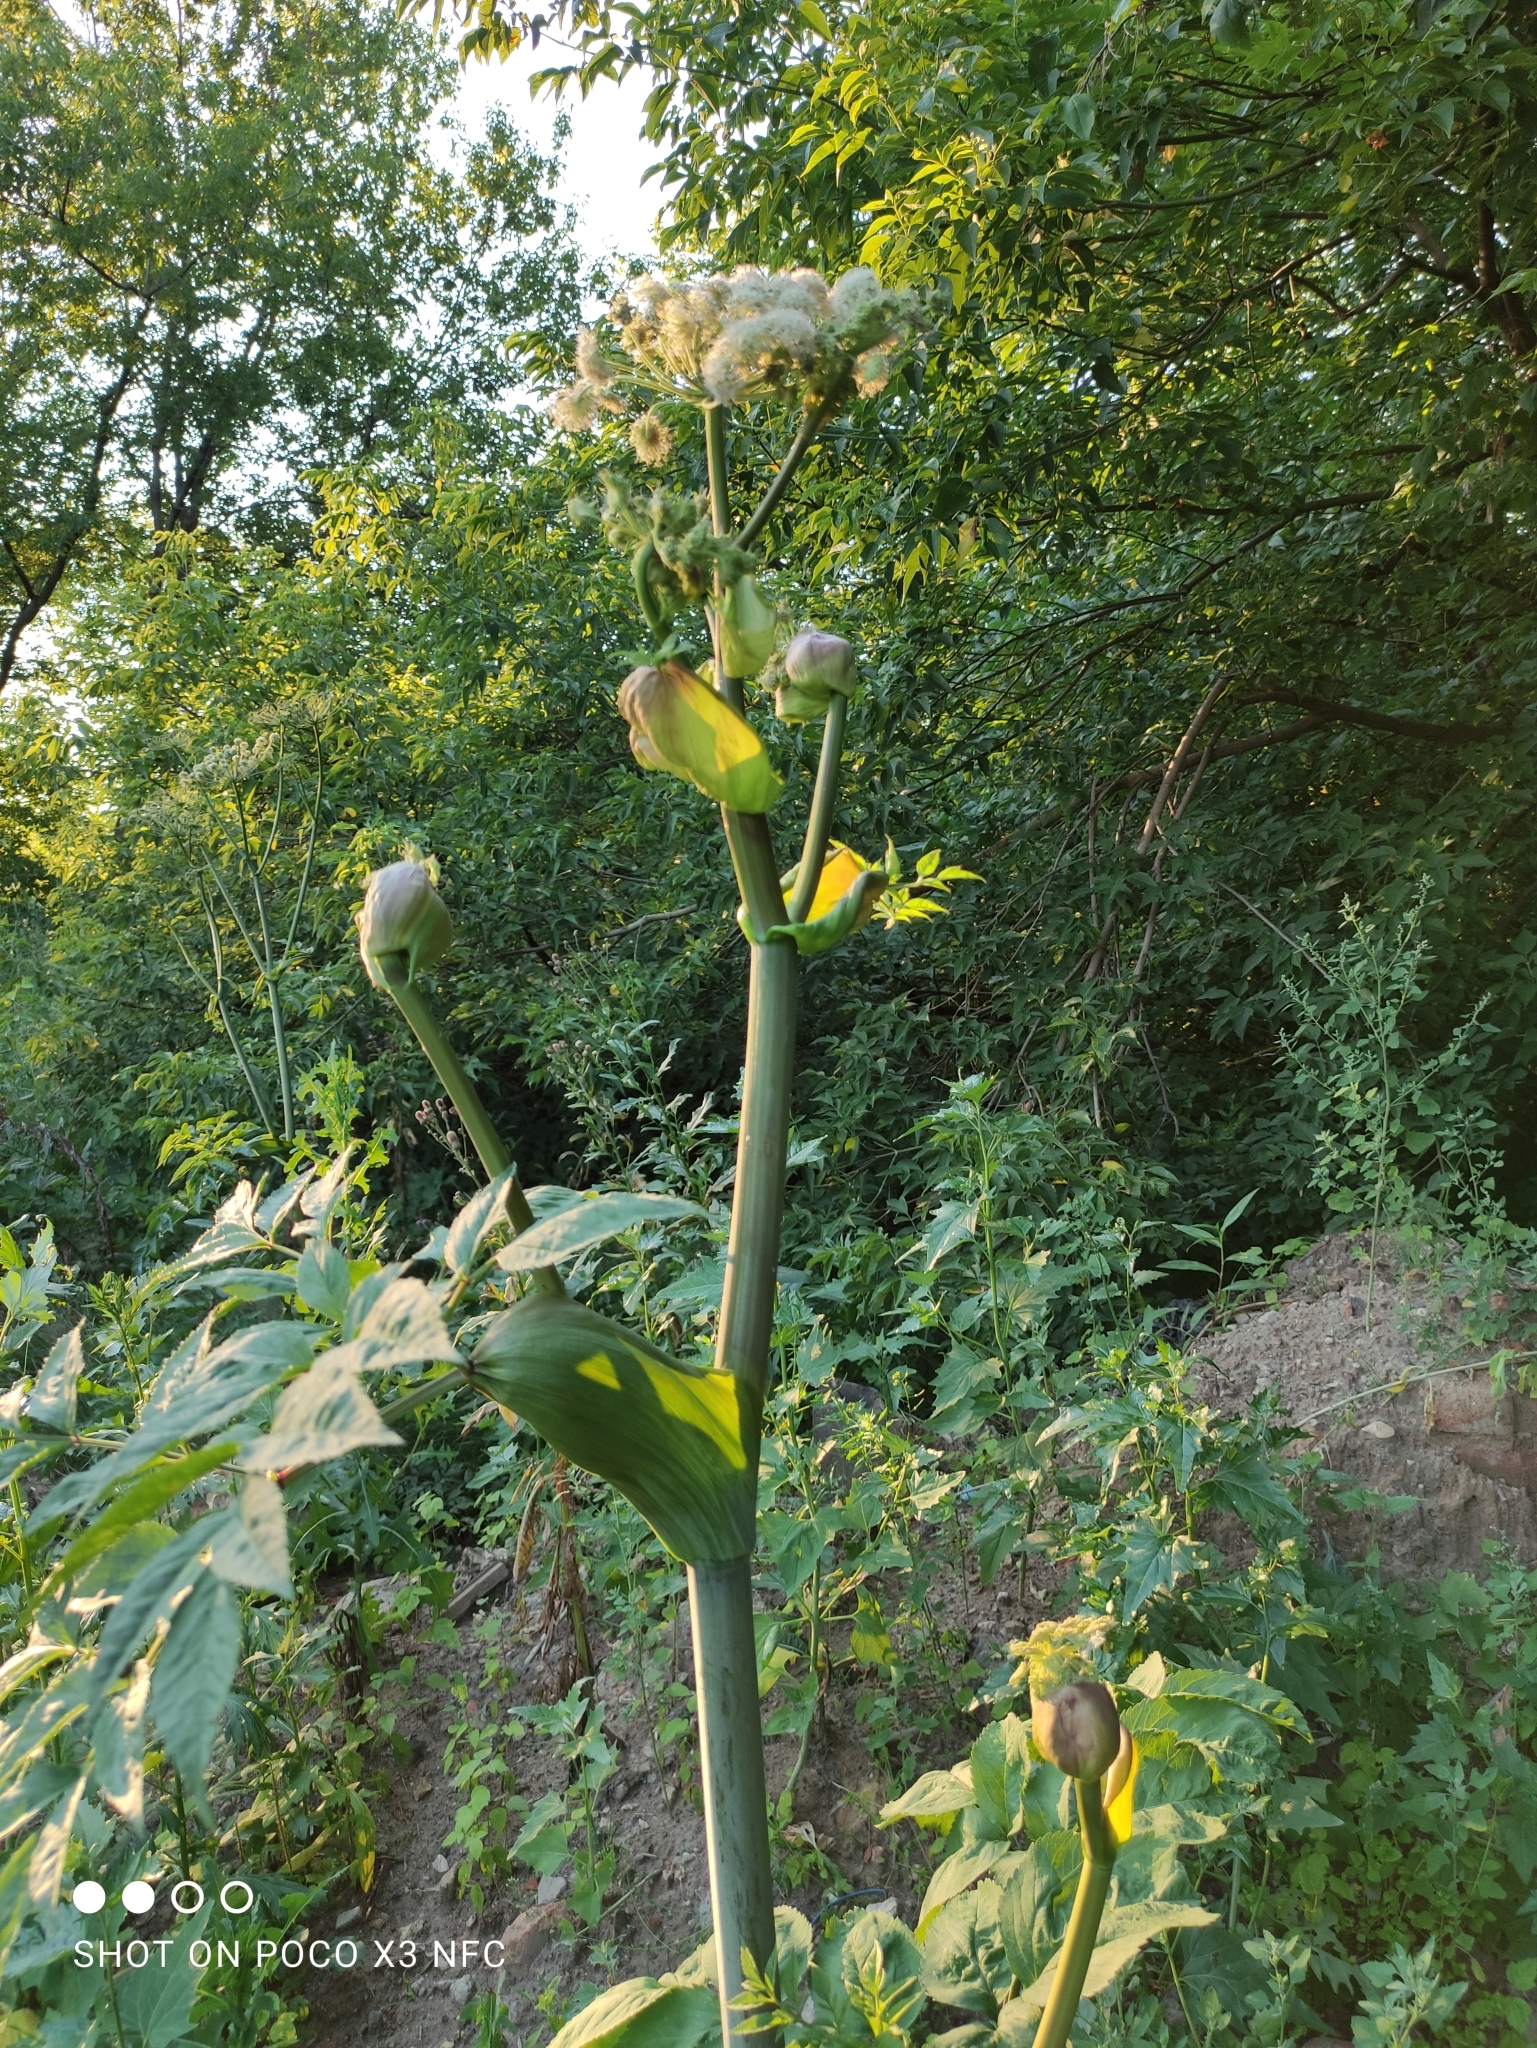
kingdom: Plantae
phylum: Tracheophyta
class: Magnoliopsida
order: Apiales
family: Apiaceae
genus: Angelica
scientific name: Angelica sylvestris
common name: Wild angelica
